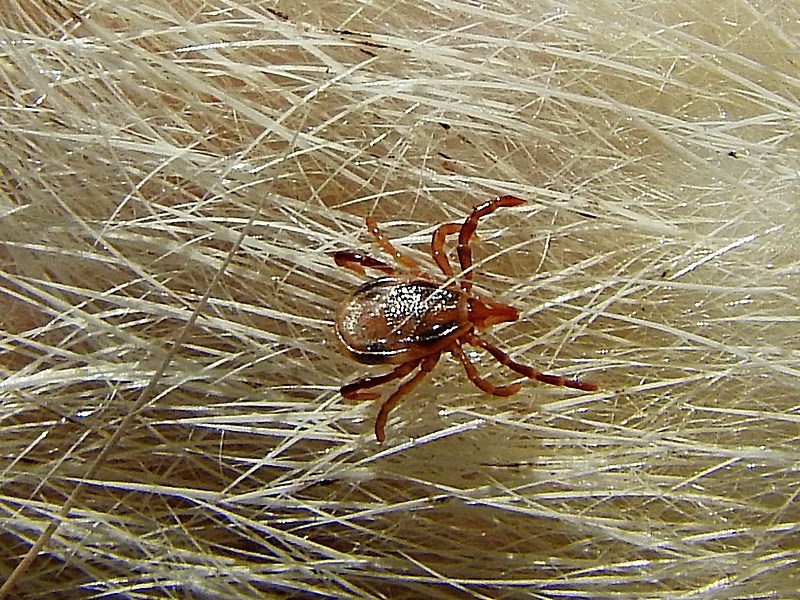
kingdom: Animalia
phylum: Arthropoda
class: Arachnida
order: Ixodida
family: Ixodidae
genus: Ixodes
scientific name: Ixodes holocyclus
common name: Australian paralysis tick
